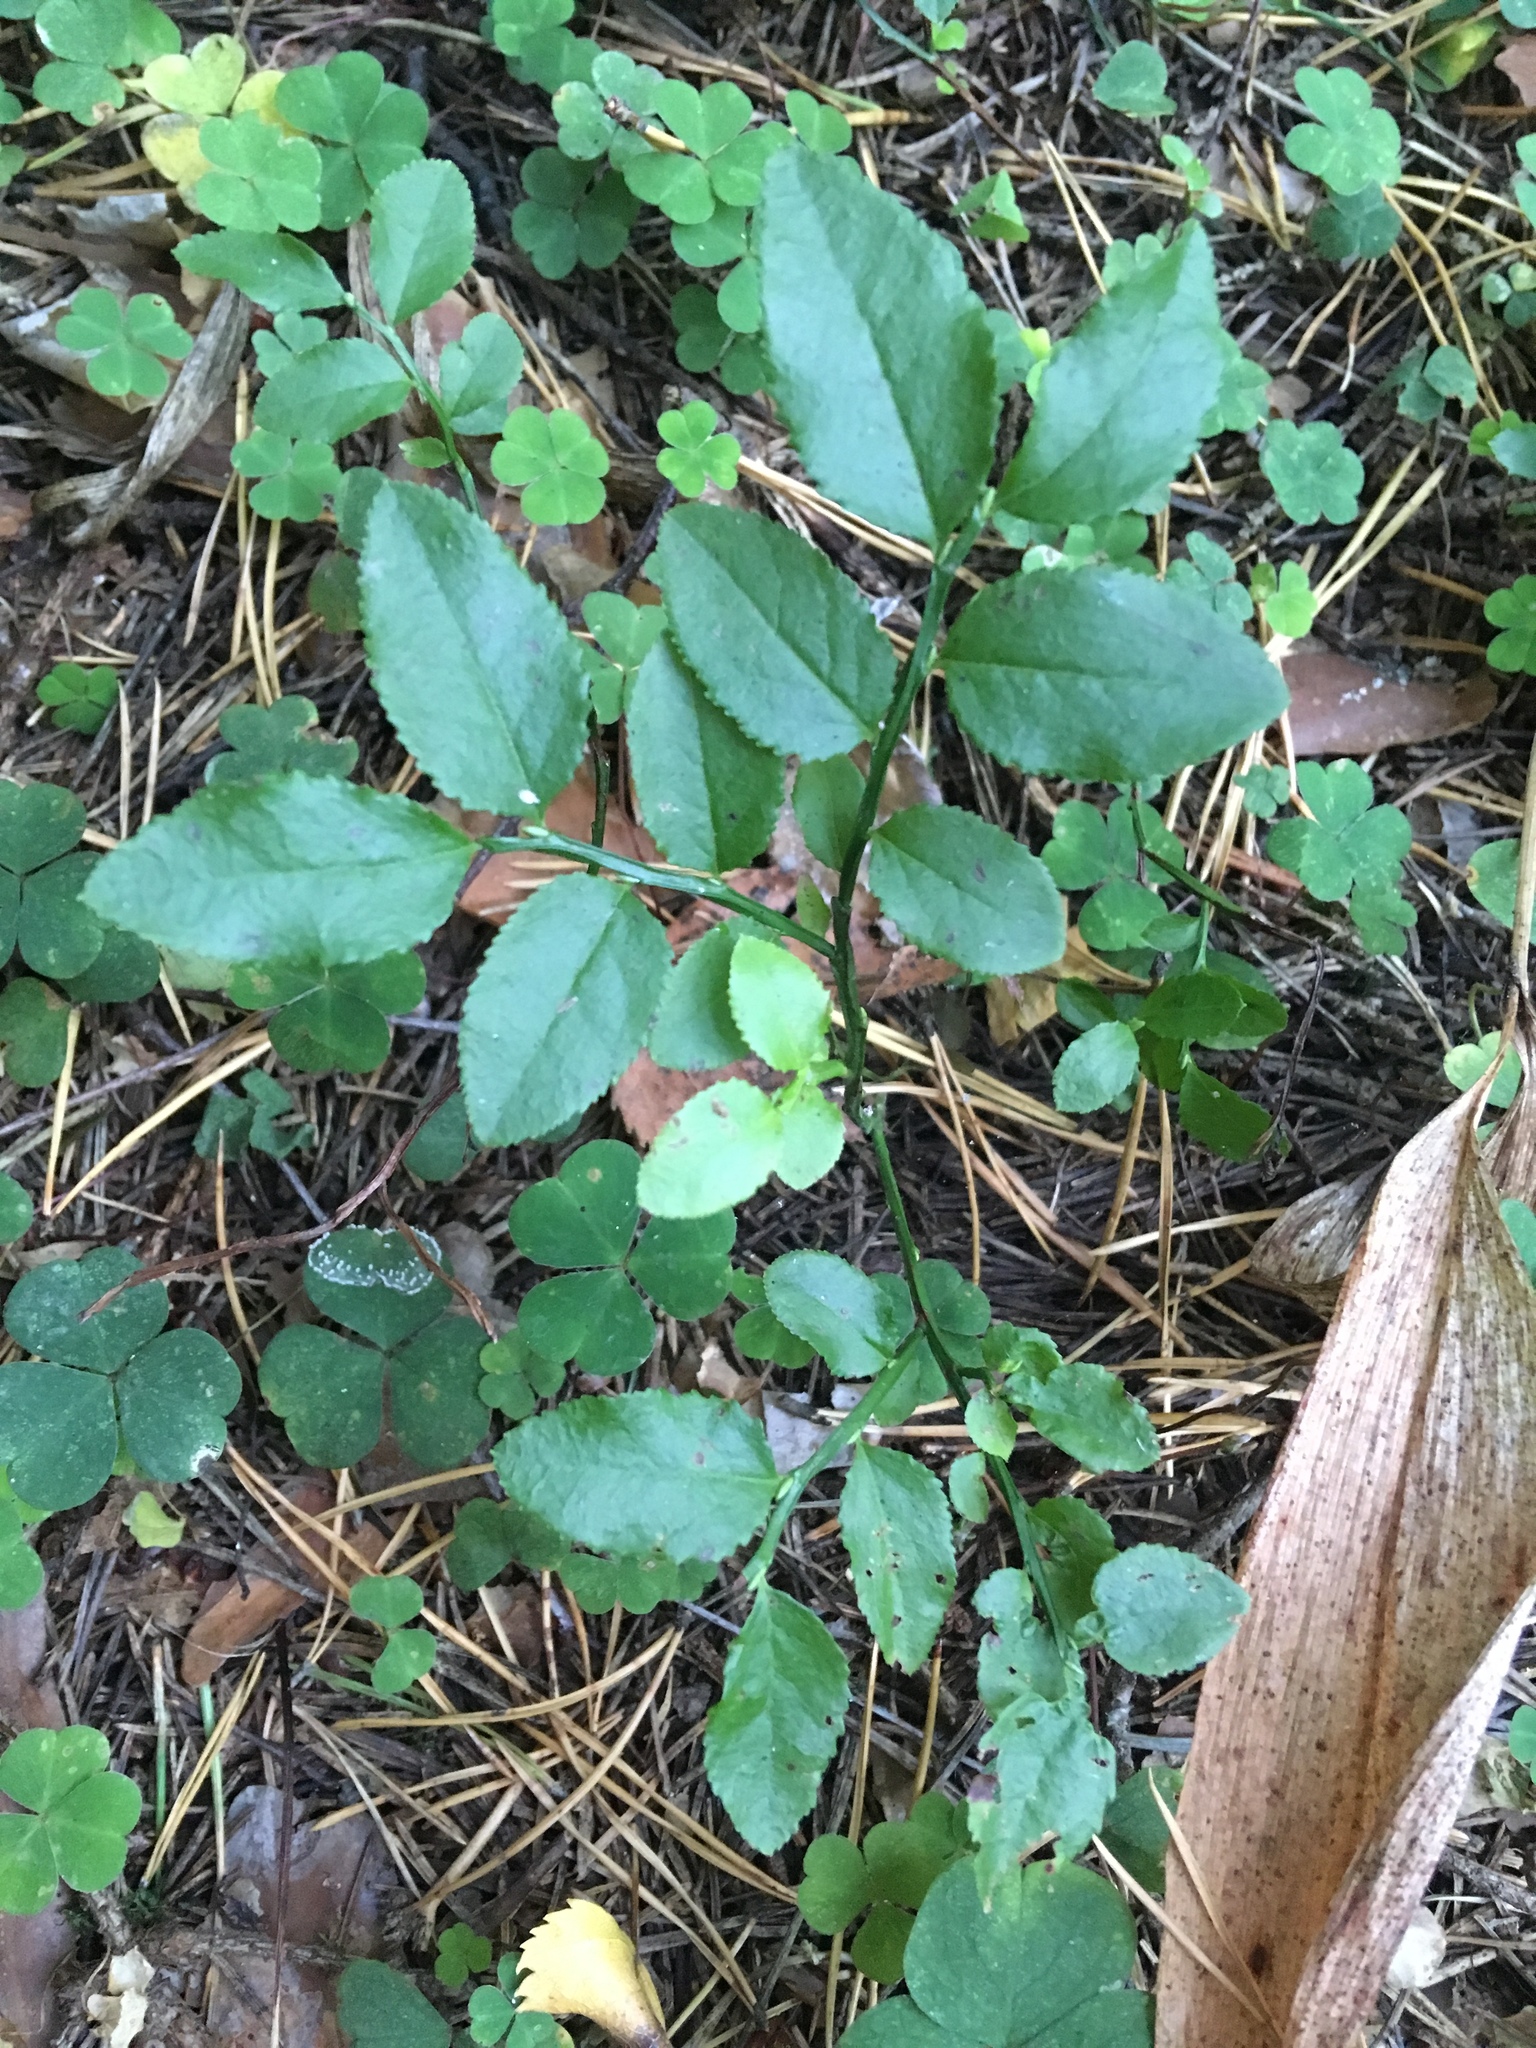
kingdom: Plantae
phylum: Tracheophyta
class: Magnoliopsida
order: Ericales
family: Ericaceae
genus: Vaccinium
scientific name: Vaccinium myrtillus
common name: Bilberry
